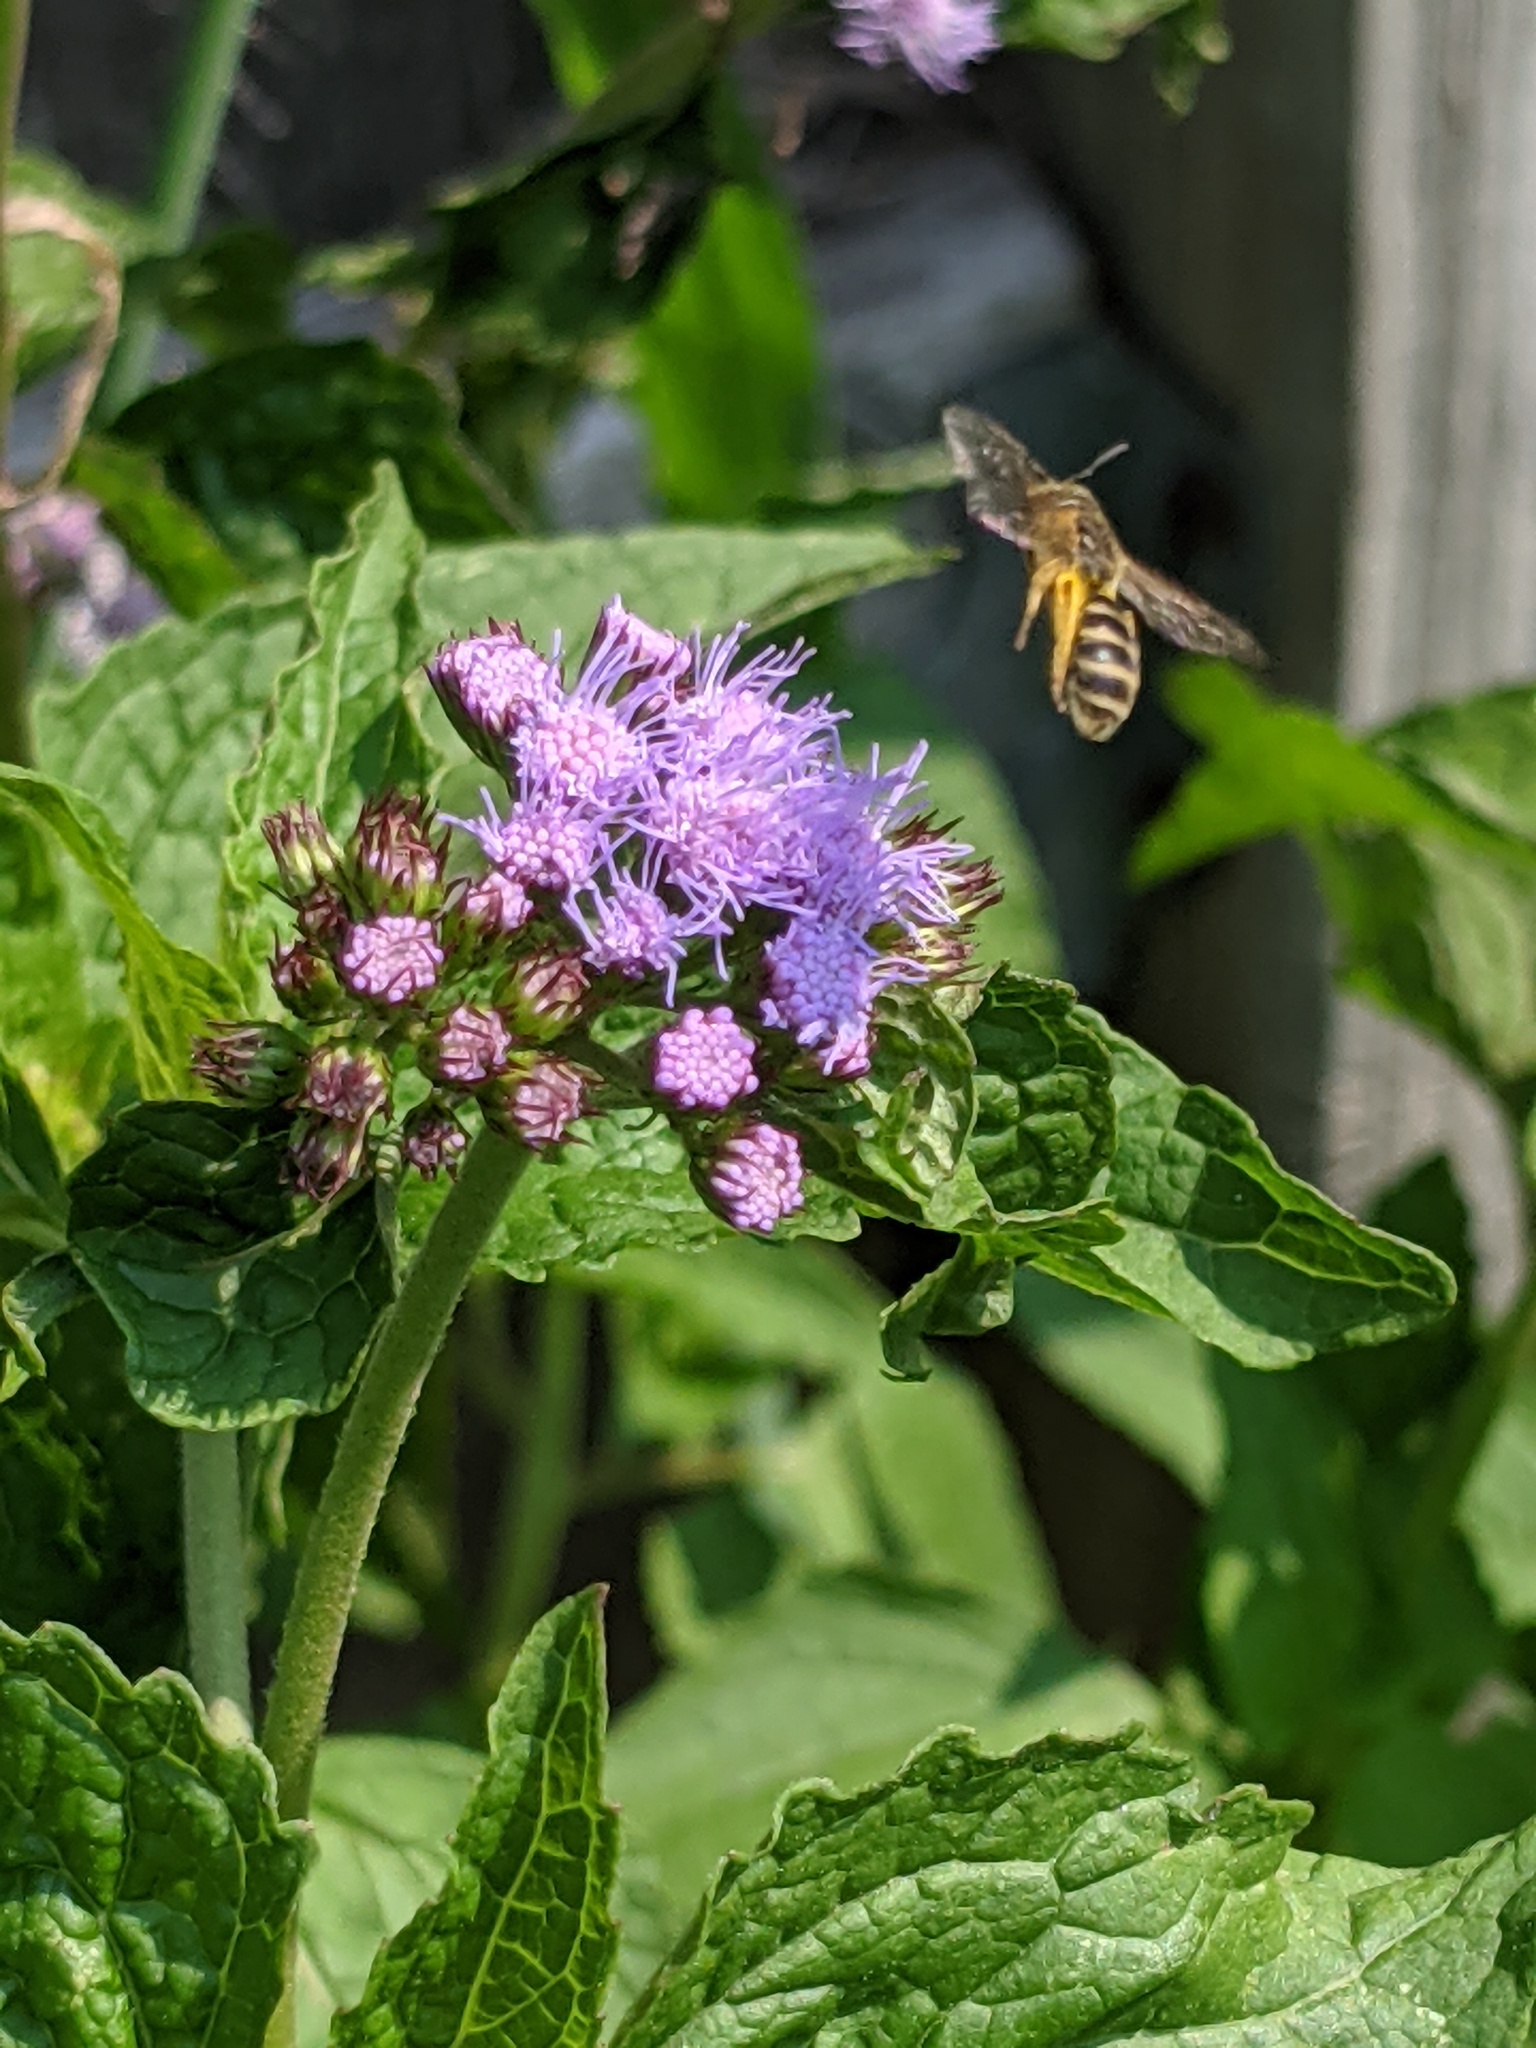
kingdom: Animalia
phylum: Arthropoda
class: Insecta
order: Hymenoptera
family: Halictidae
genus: Halictus
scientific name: Halictus ligatus
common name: Ligated furrow bee
